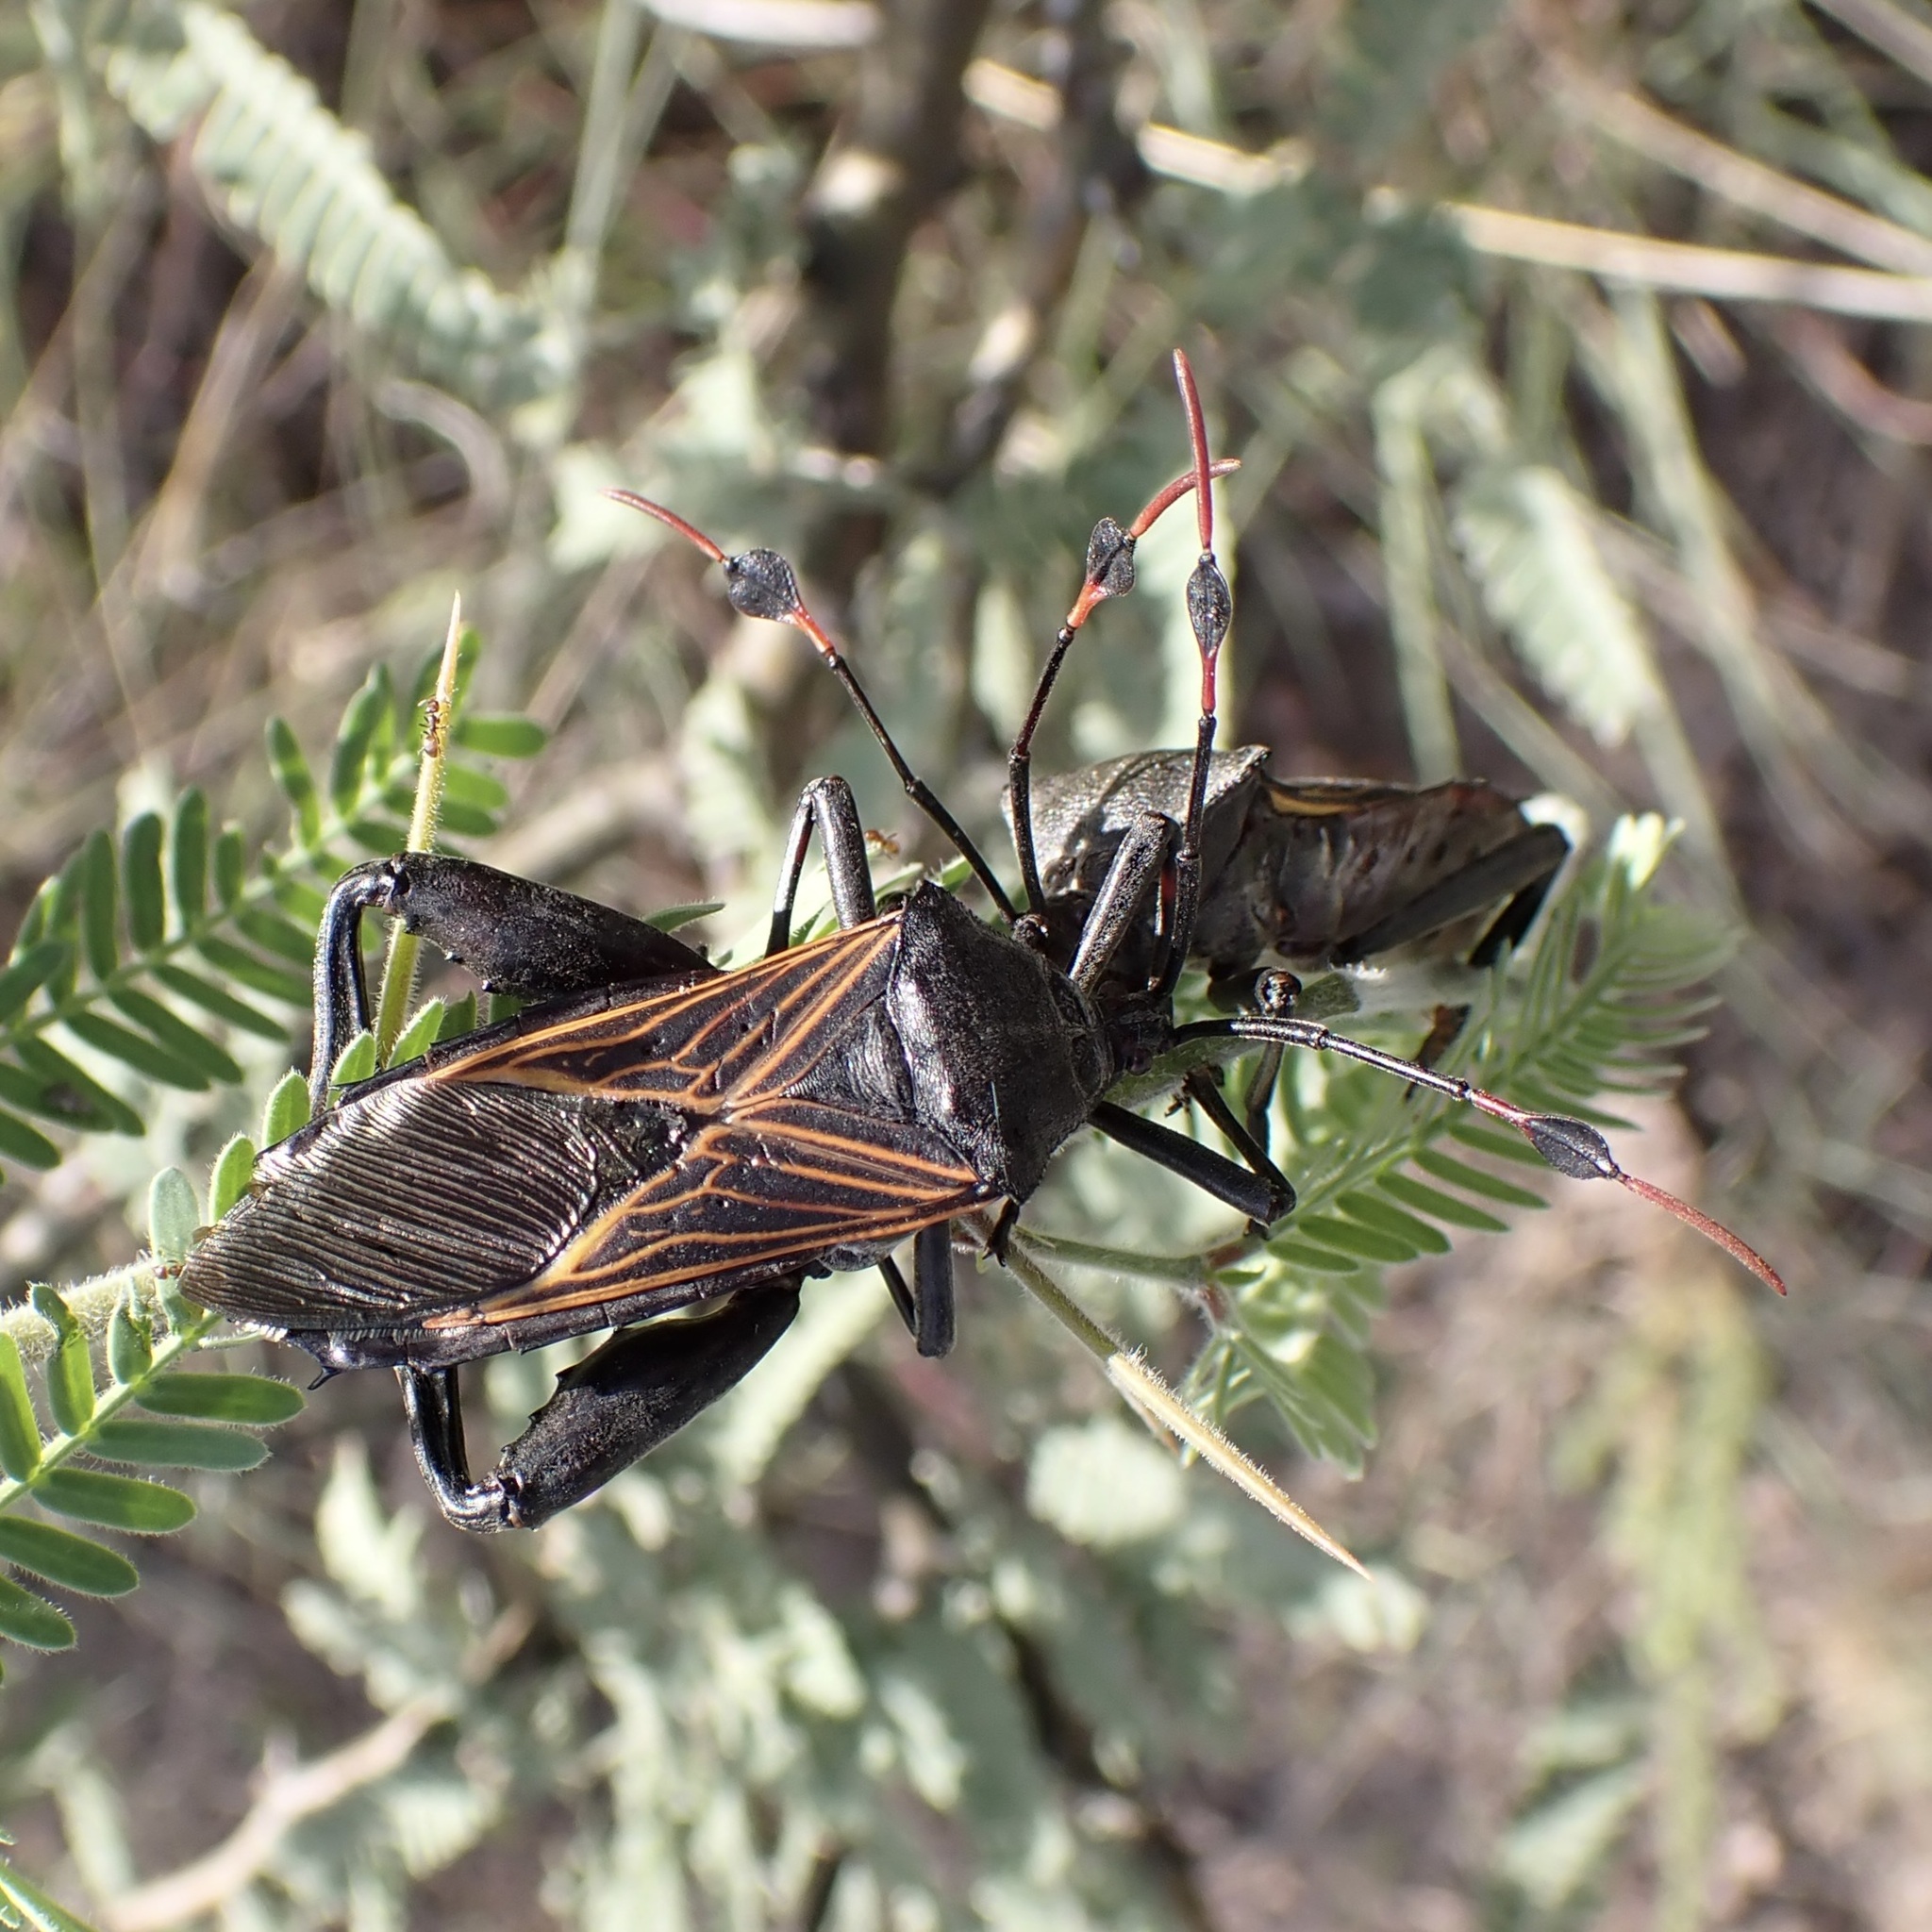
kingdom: Animalia
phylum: Arthropoda
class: Insecta
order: Hemiptera
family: Coreidae
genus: Thasus
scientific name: Thasus neocalifornicus
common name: Giant mesquite bug
